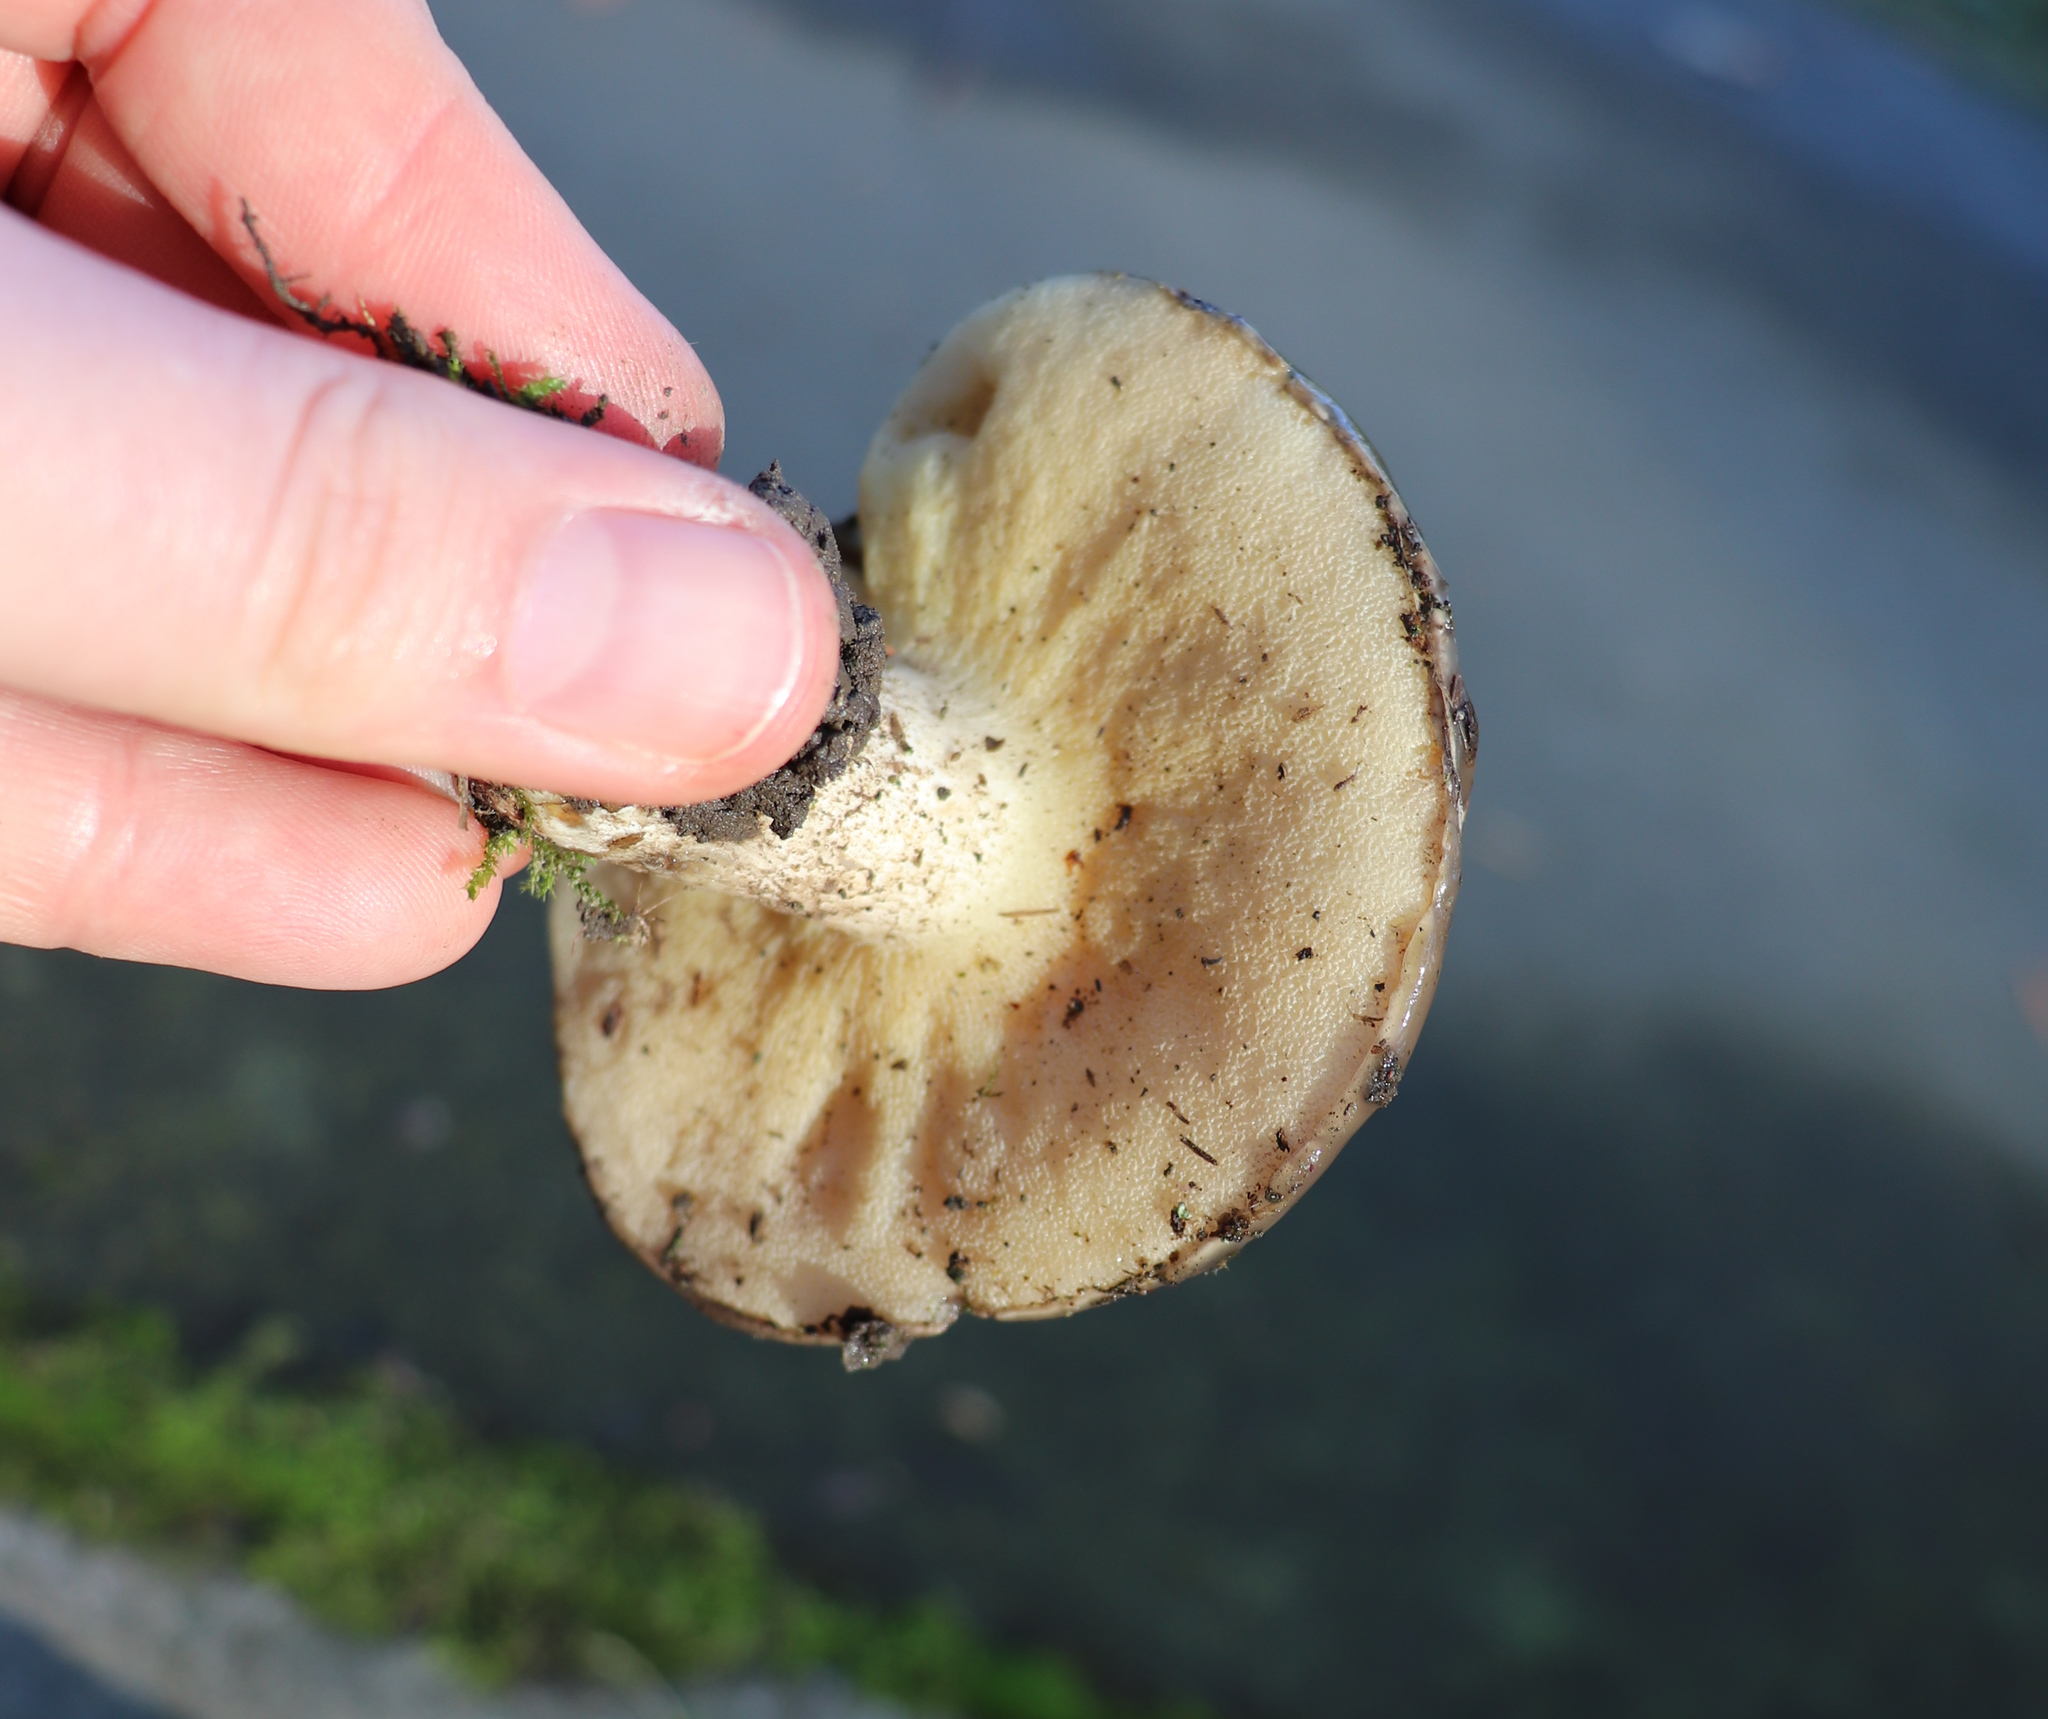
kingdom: Fungi
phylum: Basidiomycota
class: Agaricomycetes
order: Boletales
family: Suillaceae
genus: Suillus
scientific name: Suillus pungens
